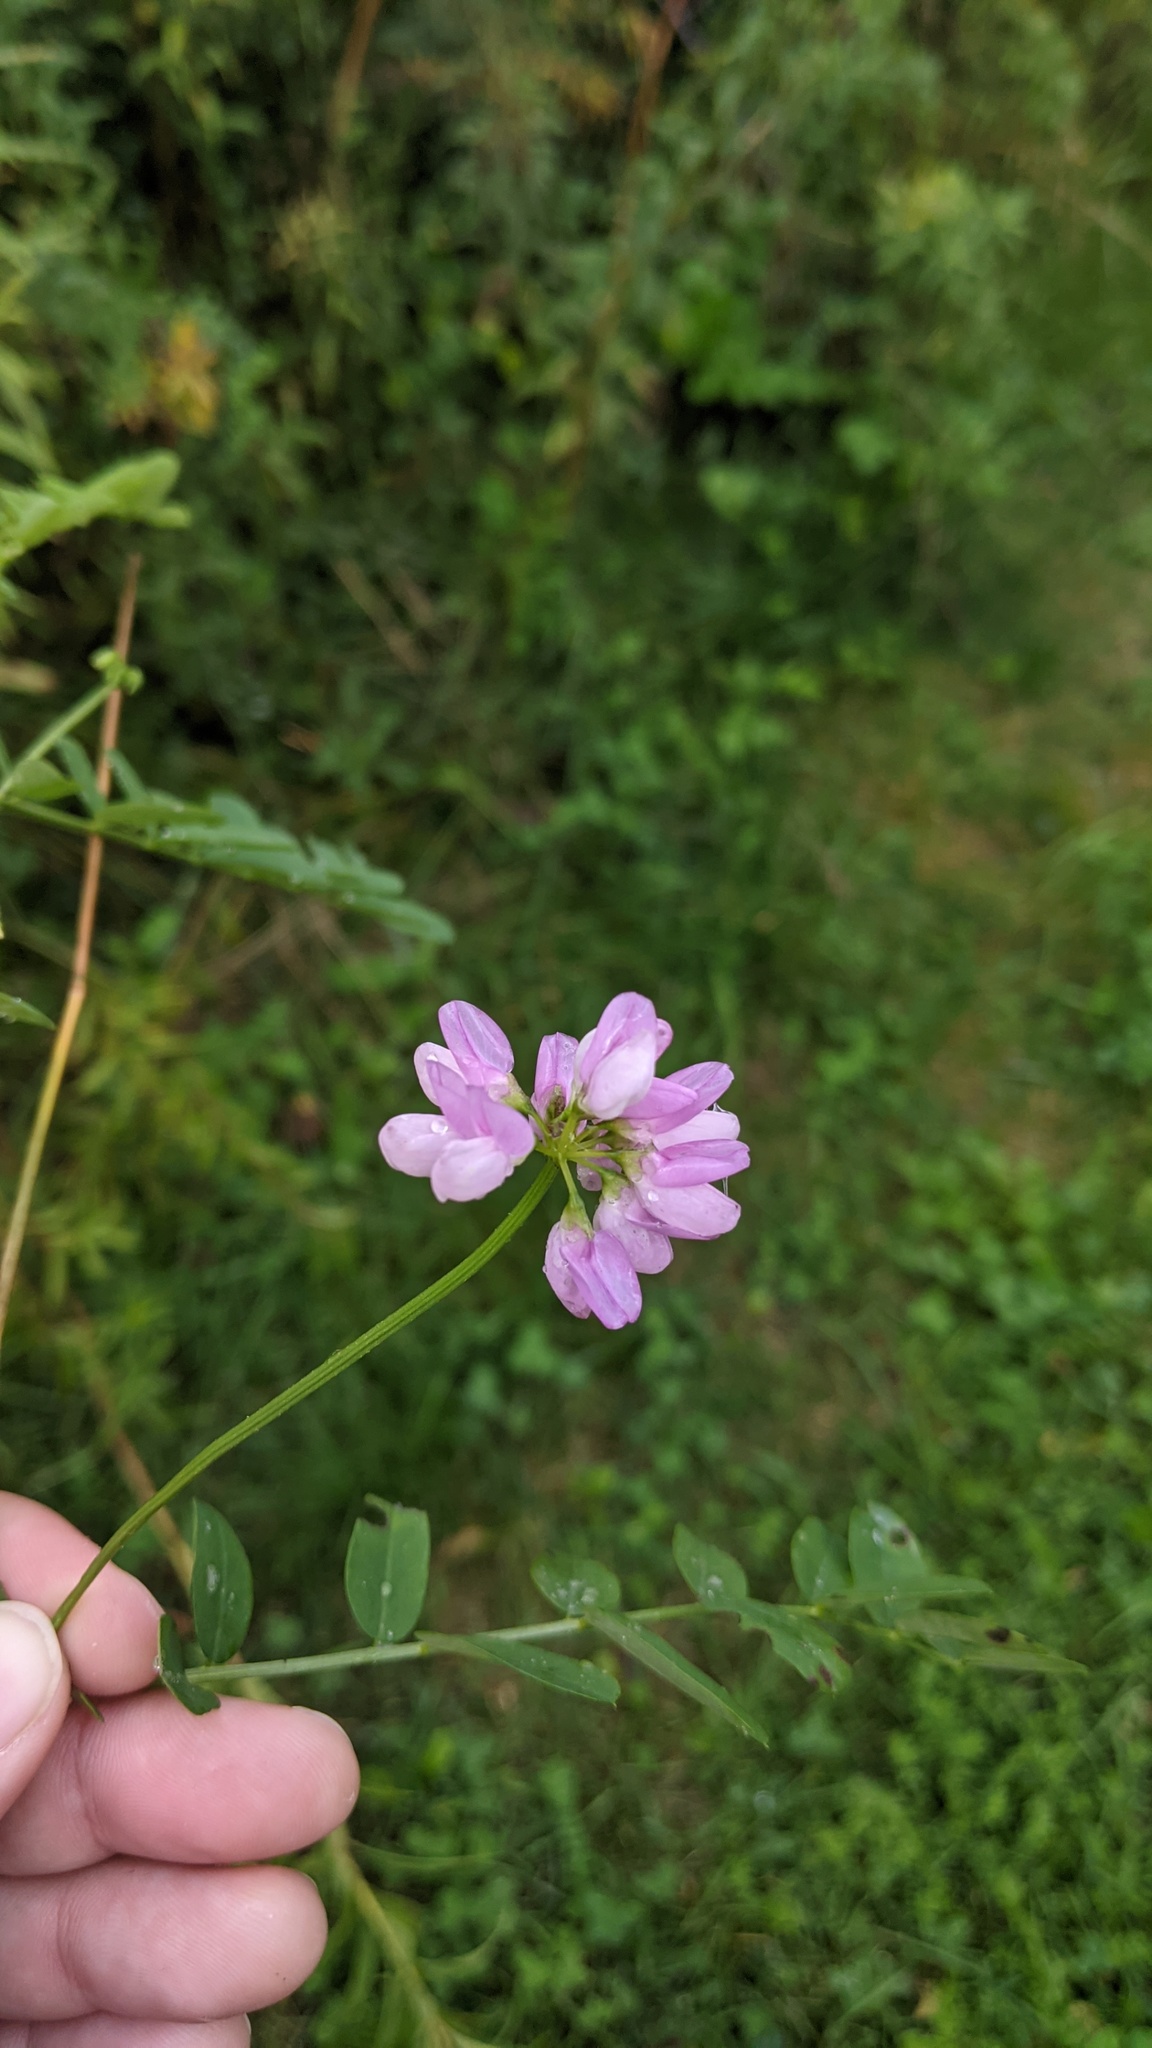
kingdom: Plantae
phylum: Tracheophyta
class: Magnoliopsida
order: Fabales
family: Fabaceae
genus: Coronilla
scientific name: Coronilla varia
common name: Crownvetch
